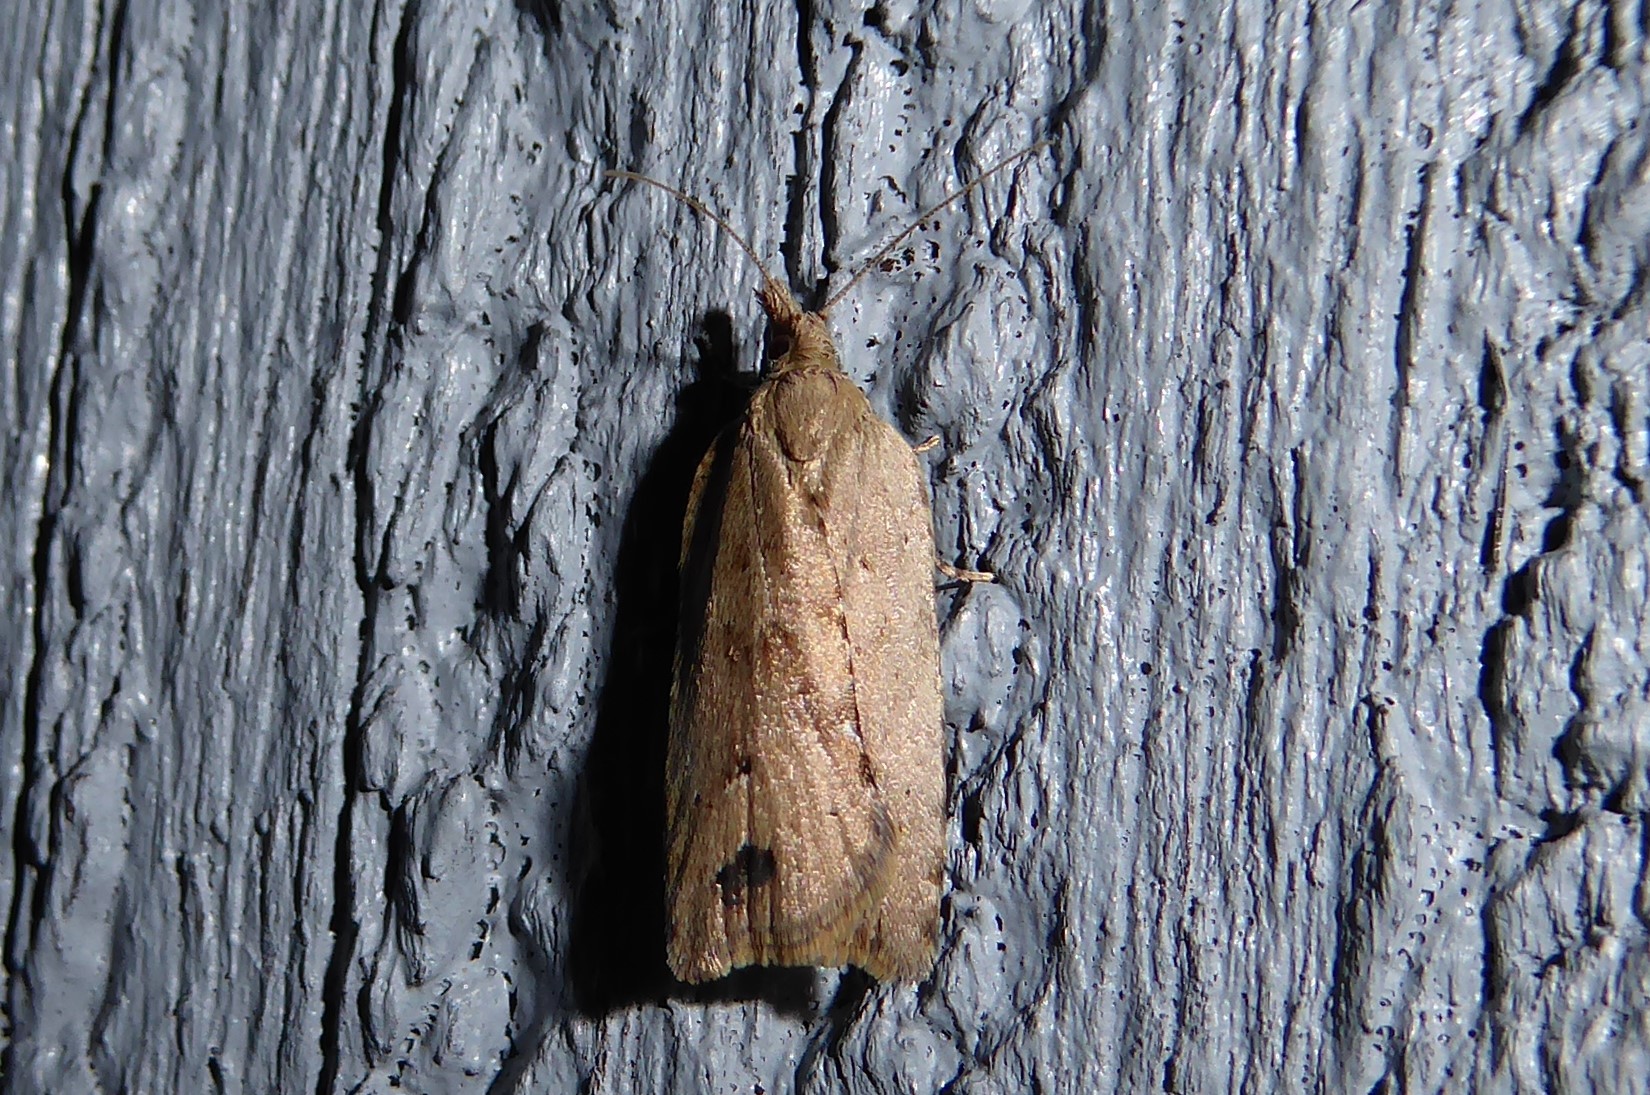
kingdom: Animalia
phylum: Arthropoda
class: Insecta
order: Lepidoptera
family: Tortricidae
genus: Planotortrix
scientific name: Planotortrix notophaea
